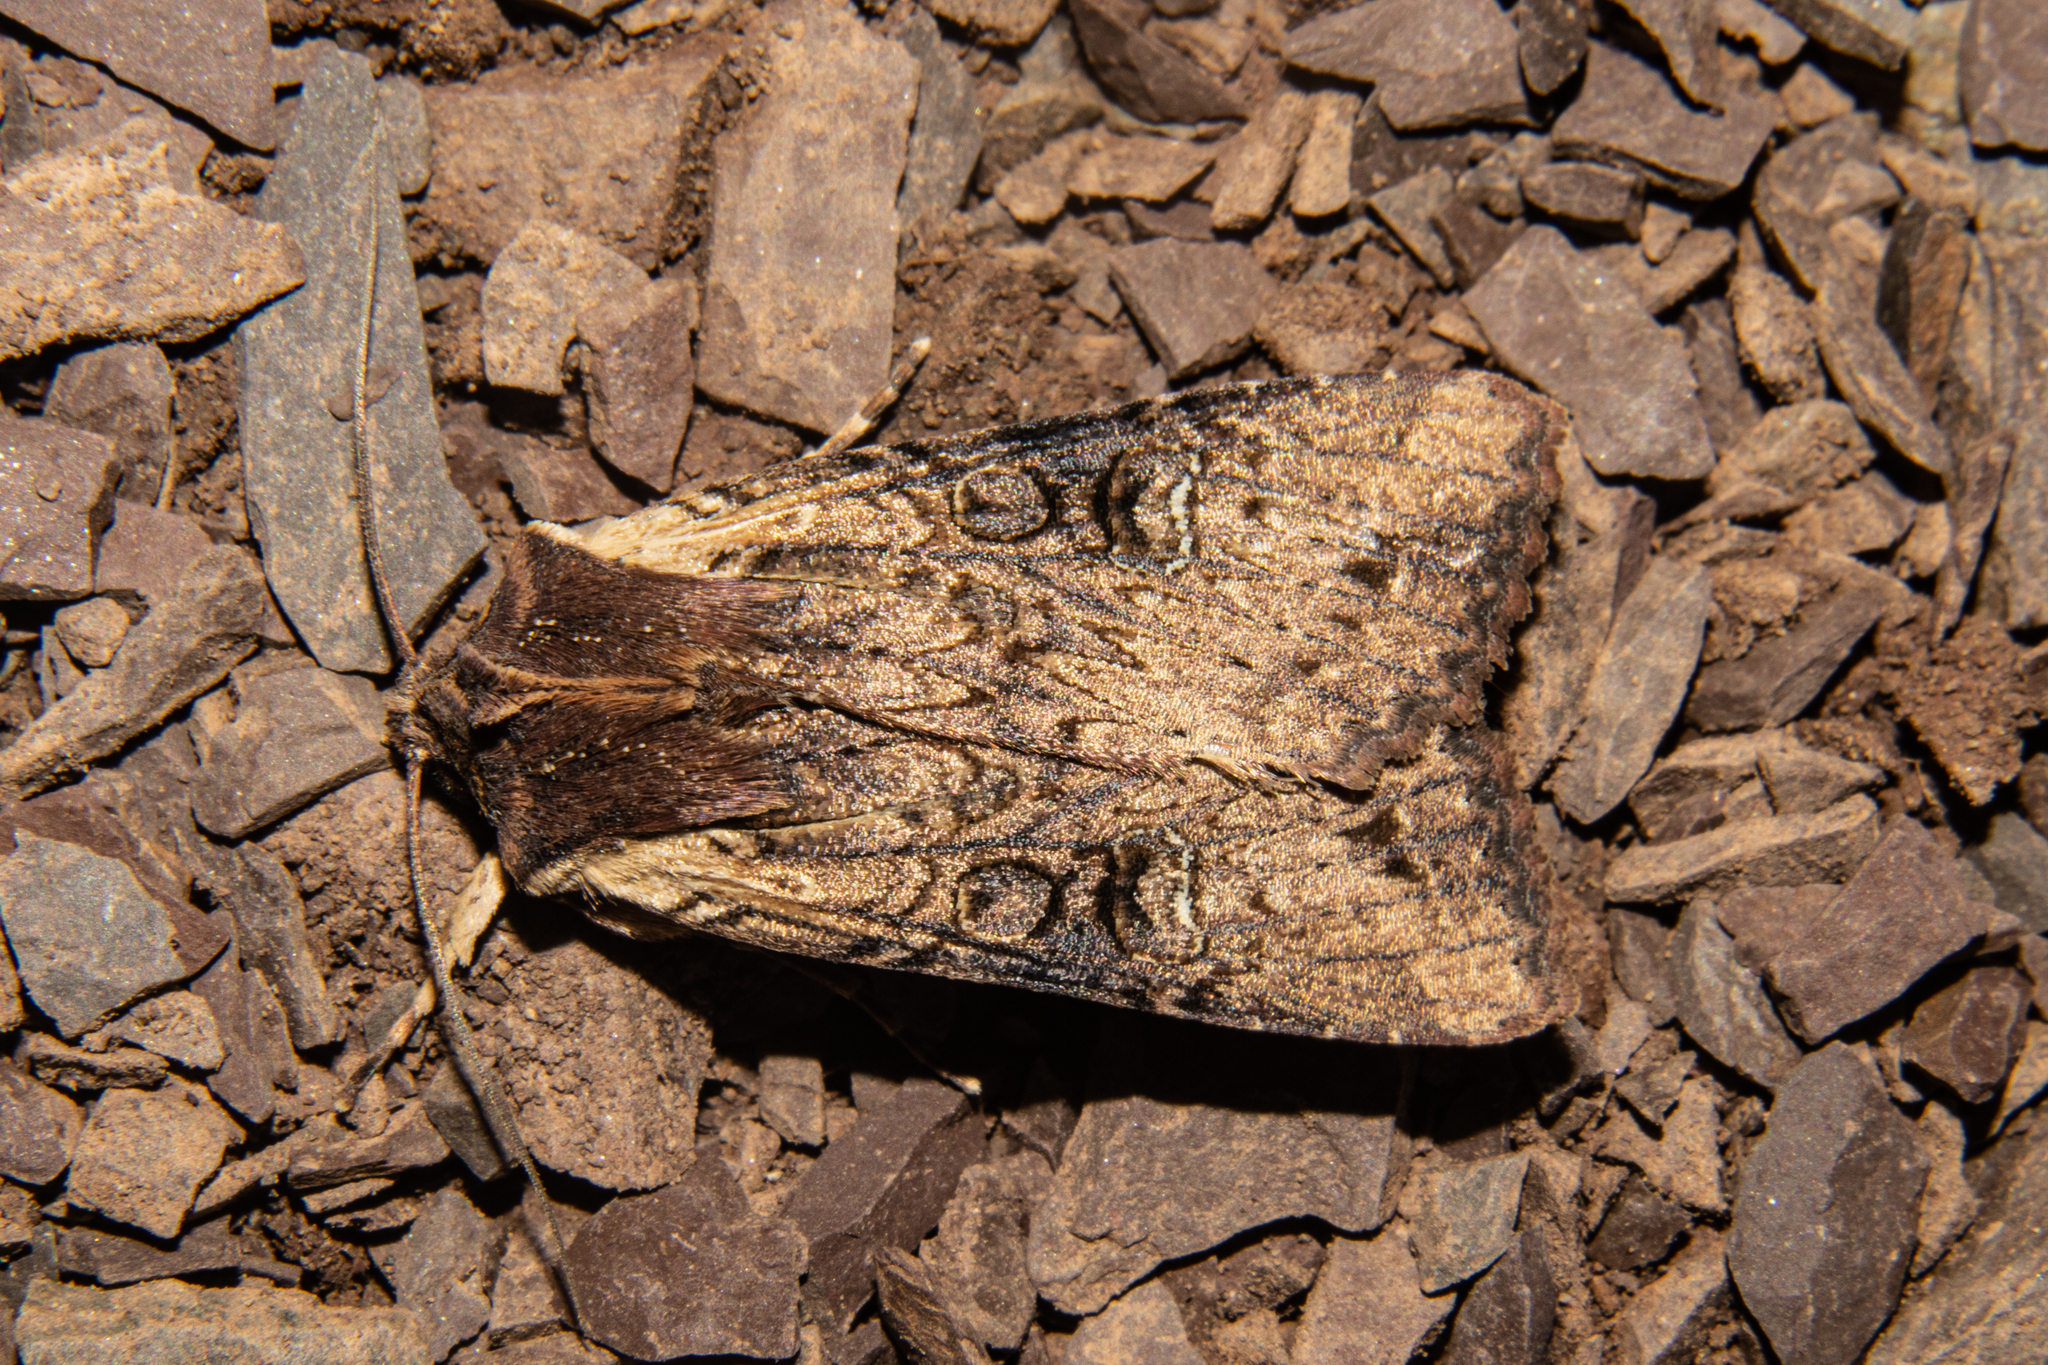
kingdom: Animalia
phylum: Arthropoda
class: Insecta
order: Lepidoptera
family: Noctuidae
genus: Ichneutica
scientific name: Ichneutica omoplaca
